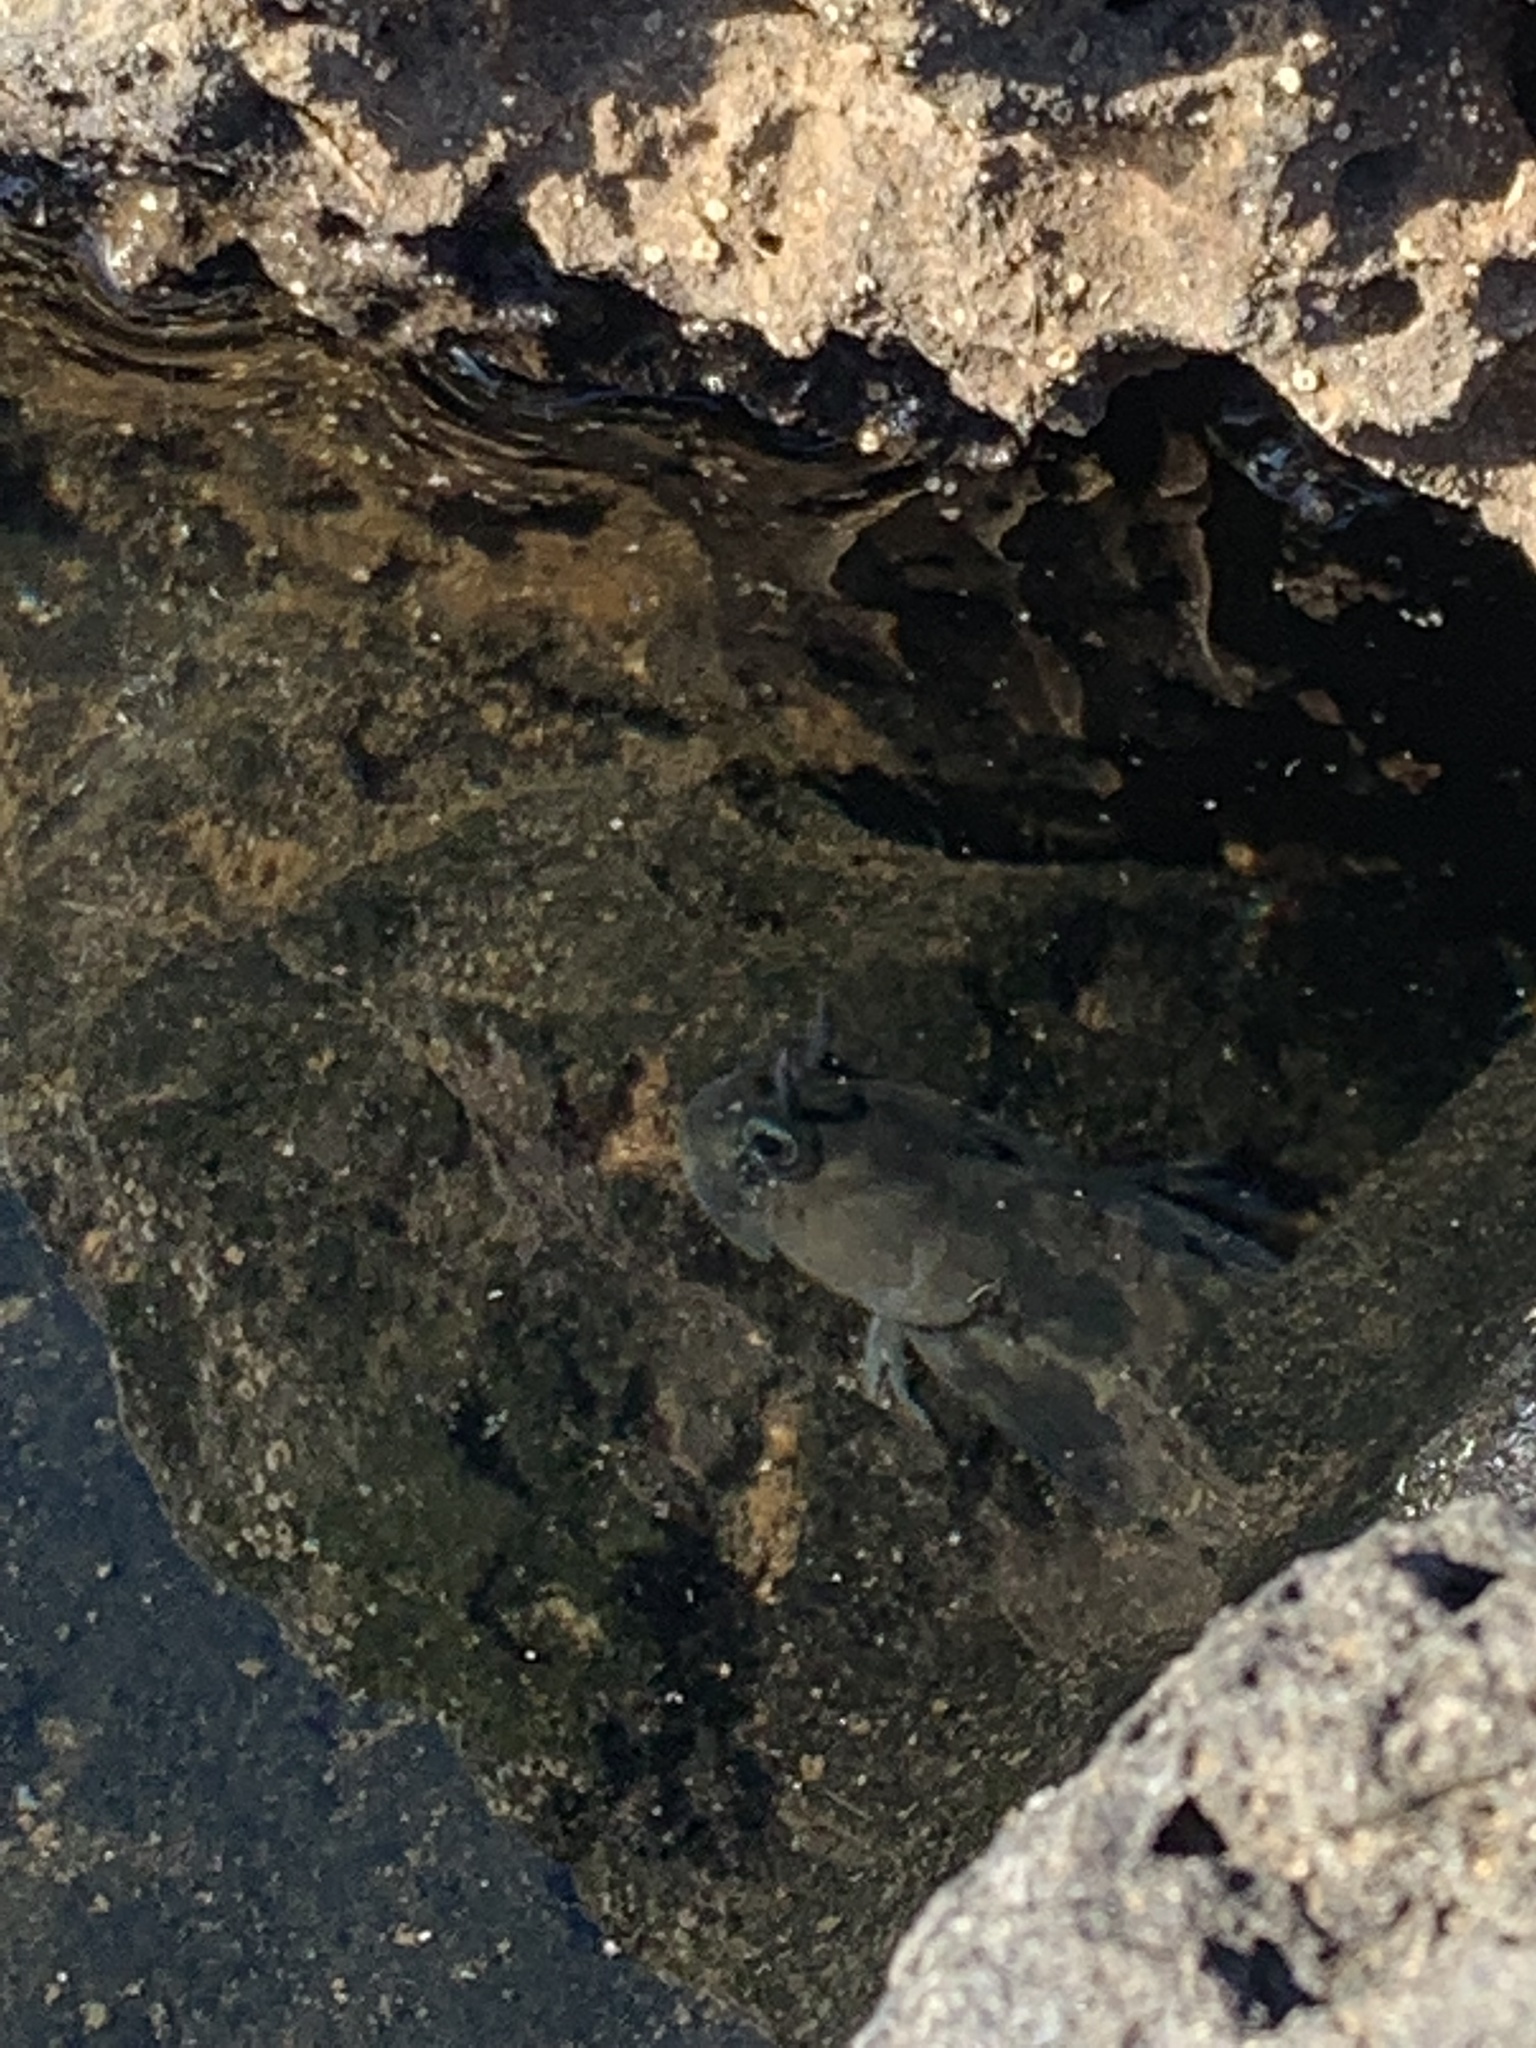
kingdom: Animalia
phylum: Chordata
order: Perciformes
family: Blenniidae
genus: Istiblennius
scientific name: Istiblennius zebra
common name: Zebra blenny
